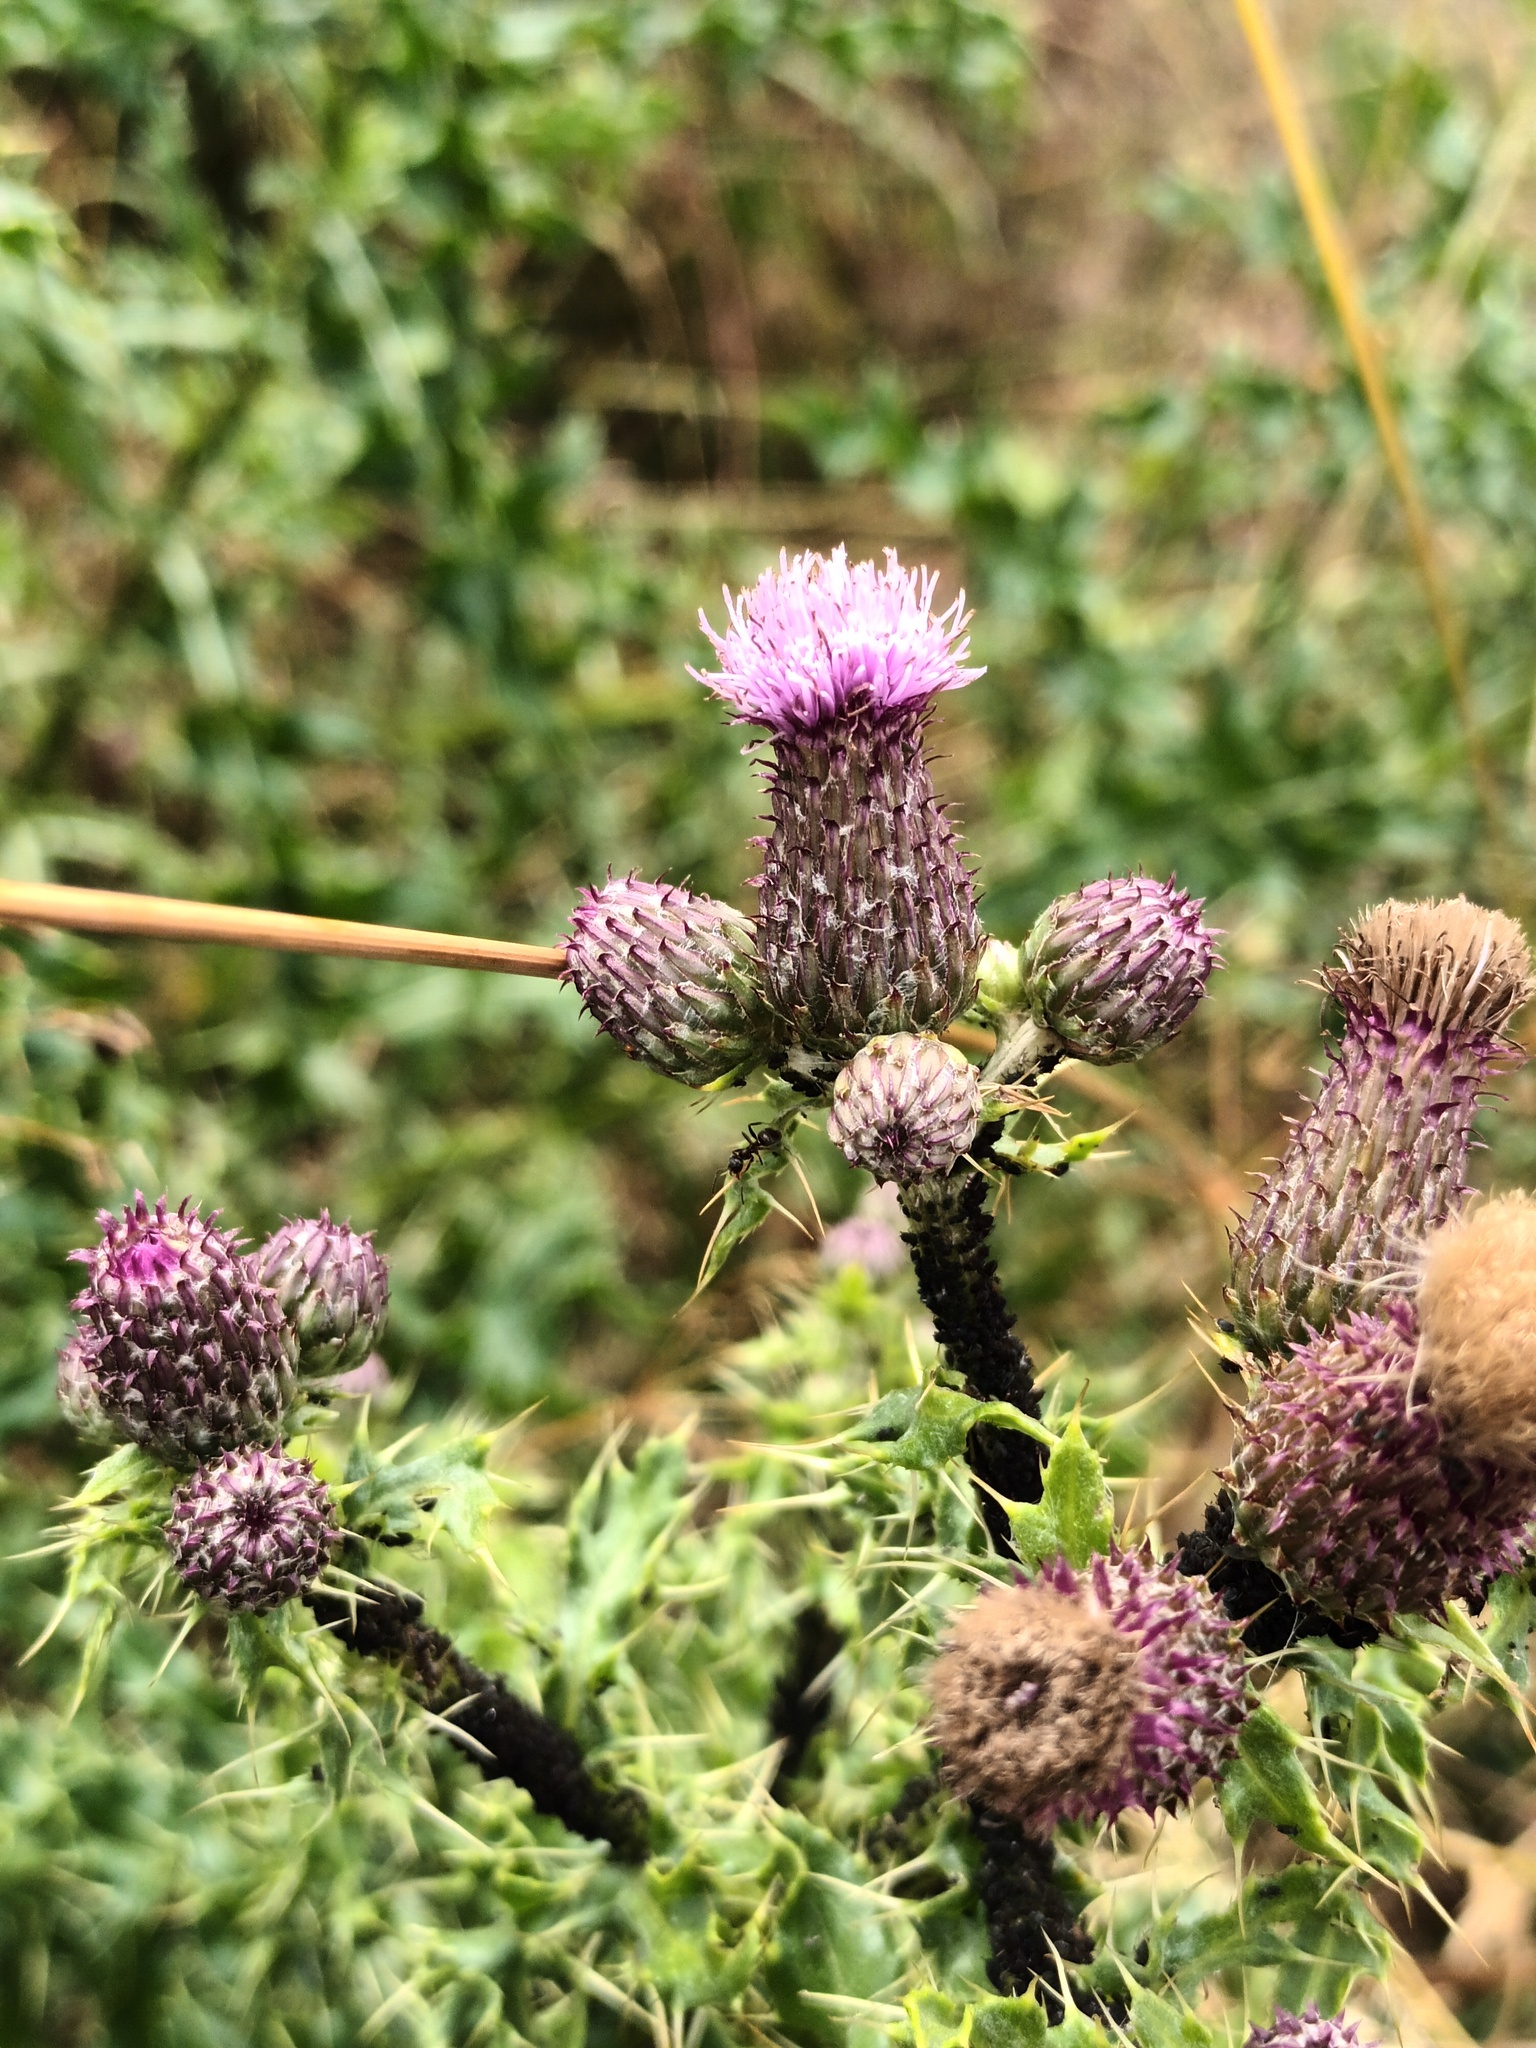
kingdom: Plantae
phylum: Tracheophyta
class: Magnoliopsida
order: Asterales
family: Asteraceae
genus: Cirsium
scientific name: Cirsium arvense
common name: Creeping thistle
